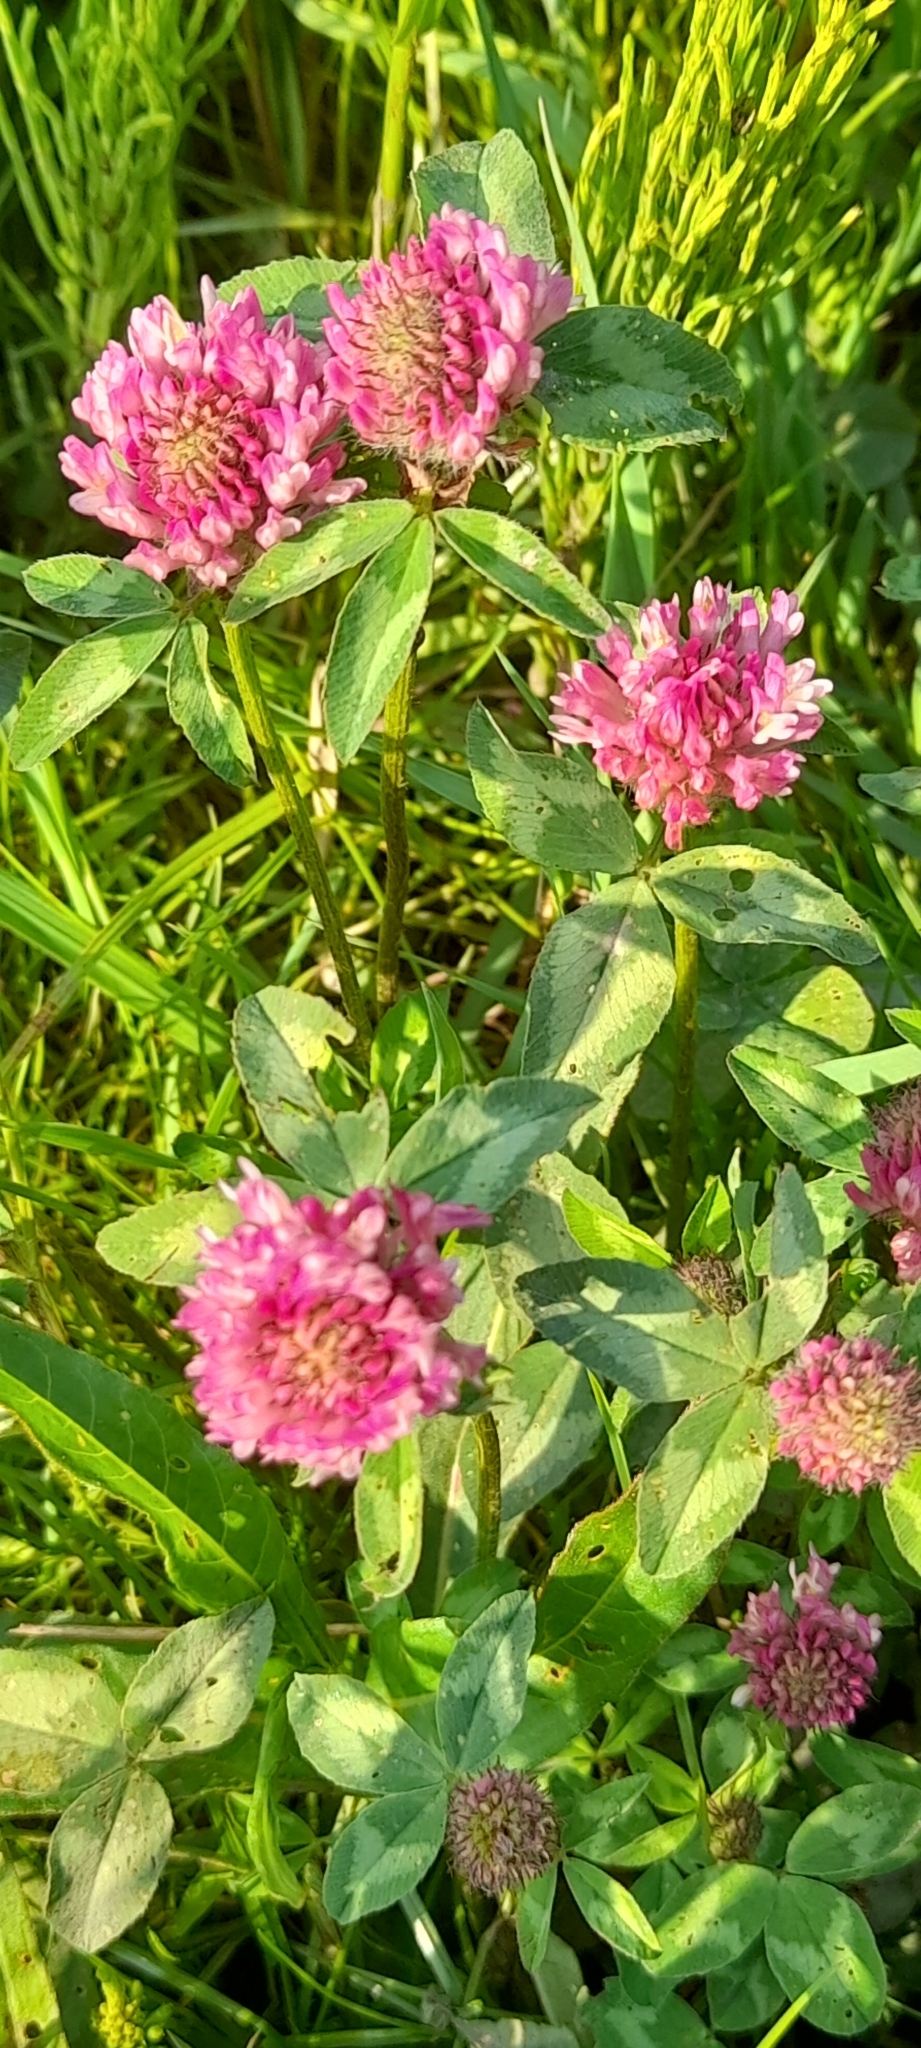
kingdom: Plantae
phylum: Tracheophyta
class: Magnoliopsida
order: Fabales
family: Fabaceae
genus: Trifolium
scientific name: Trifolium pratense
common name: Red clover
